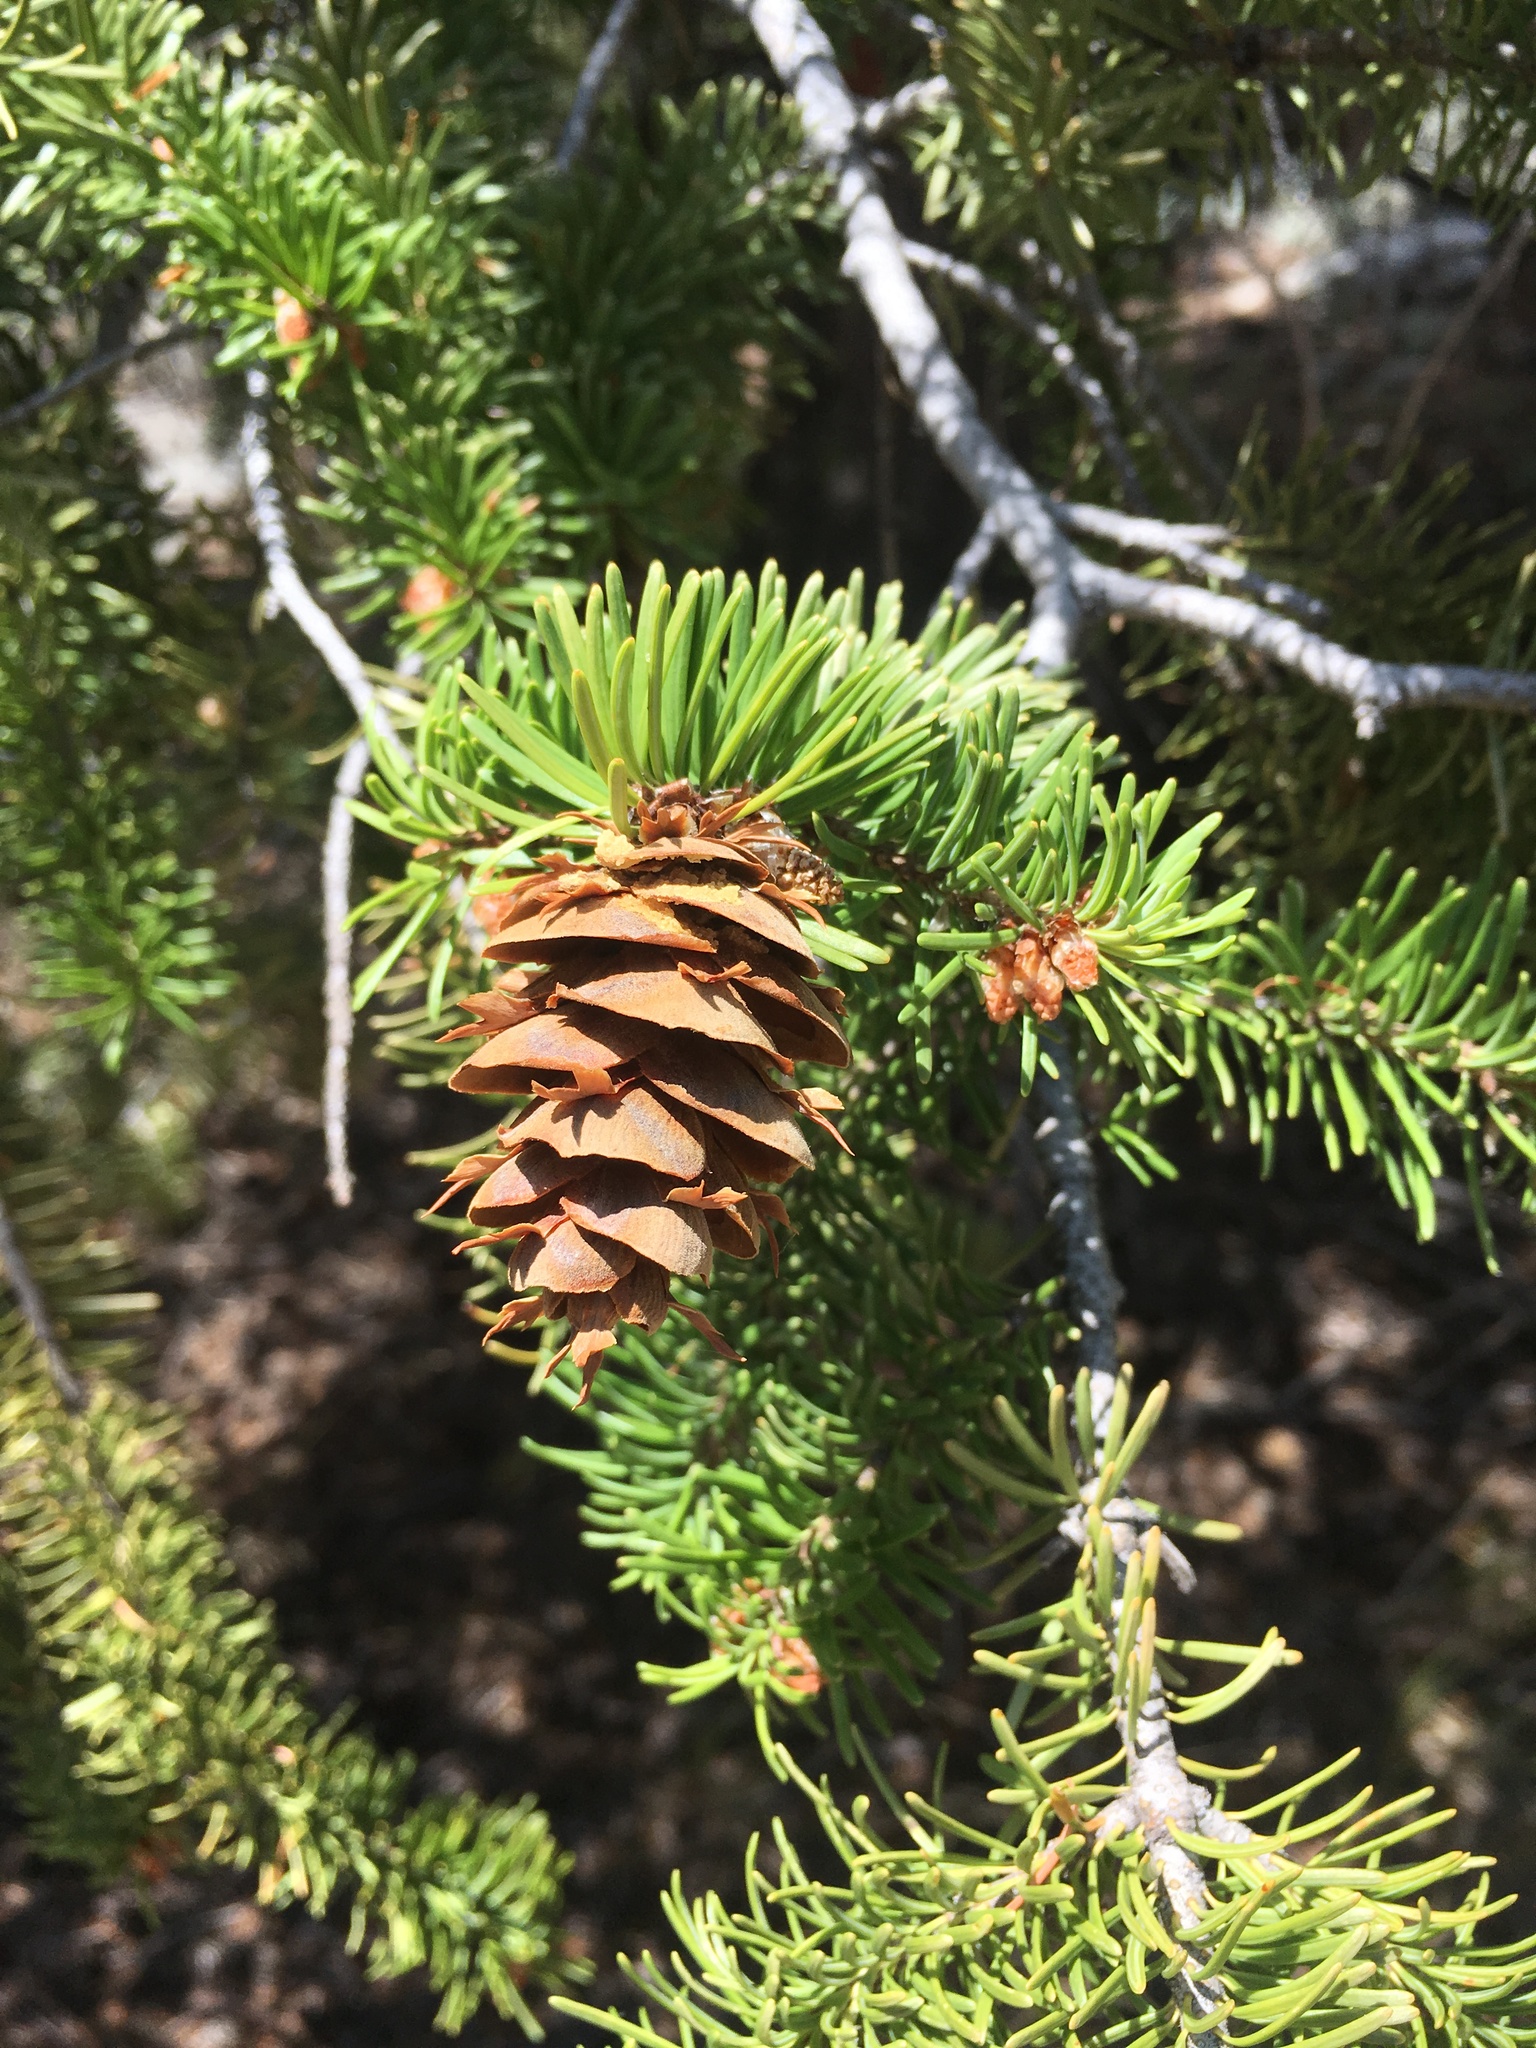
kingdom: Plantae
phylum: Tracheophyta
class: Pinopsida
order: Pinales
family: Pinaceae
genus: Pseudotsuga
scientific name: Pseudotsuga menziesii
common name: Douglas fir
